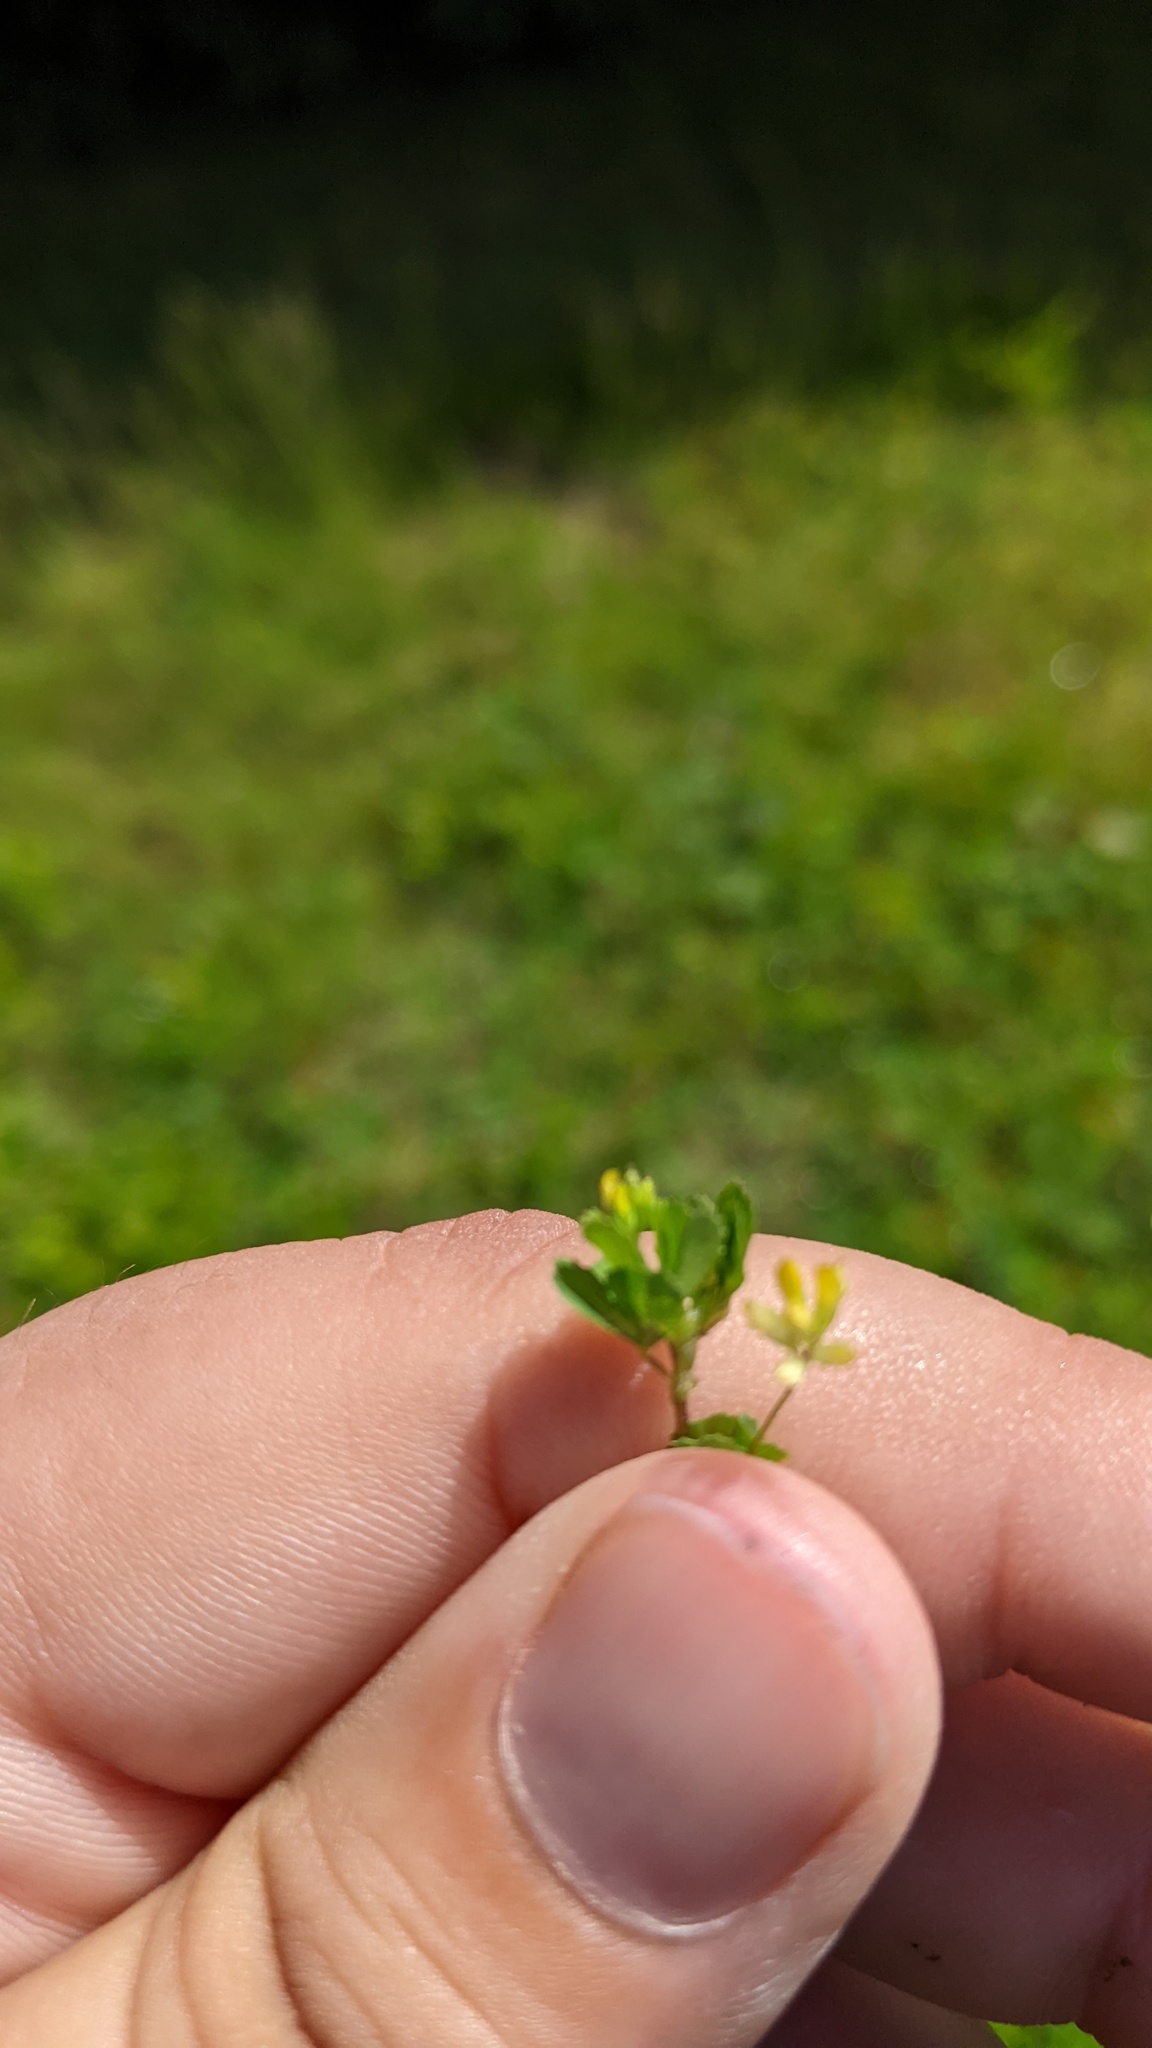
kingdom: Plantae
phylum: Tracheophyta
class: Magnoliopsida
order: Fabales
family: Fabaceae
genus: Trifolium
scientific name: Trifolium dubium
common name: Suckling clover
